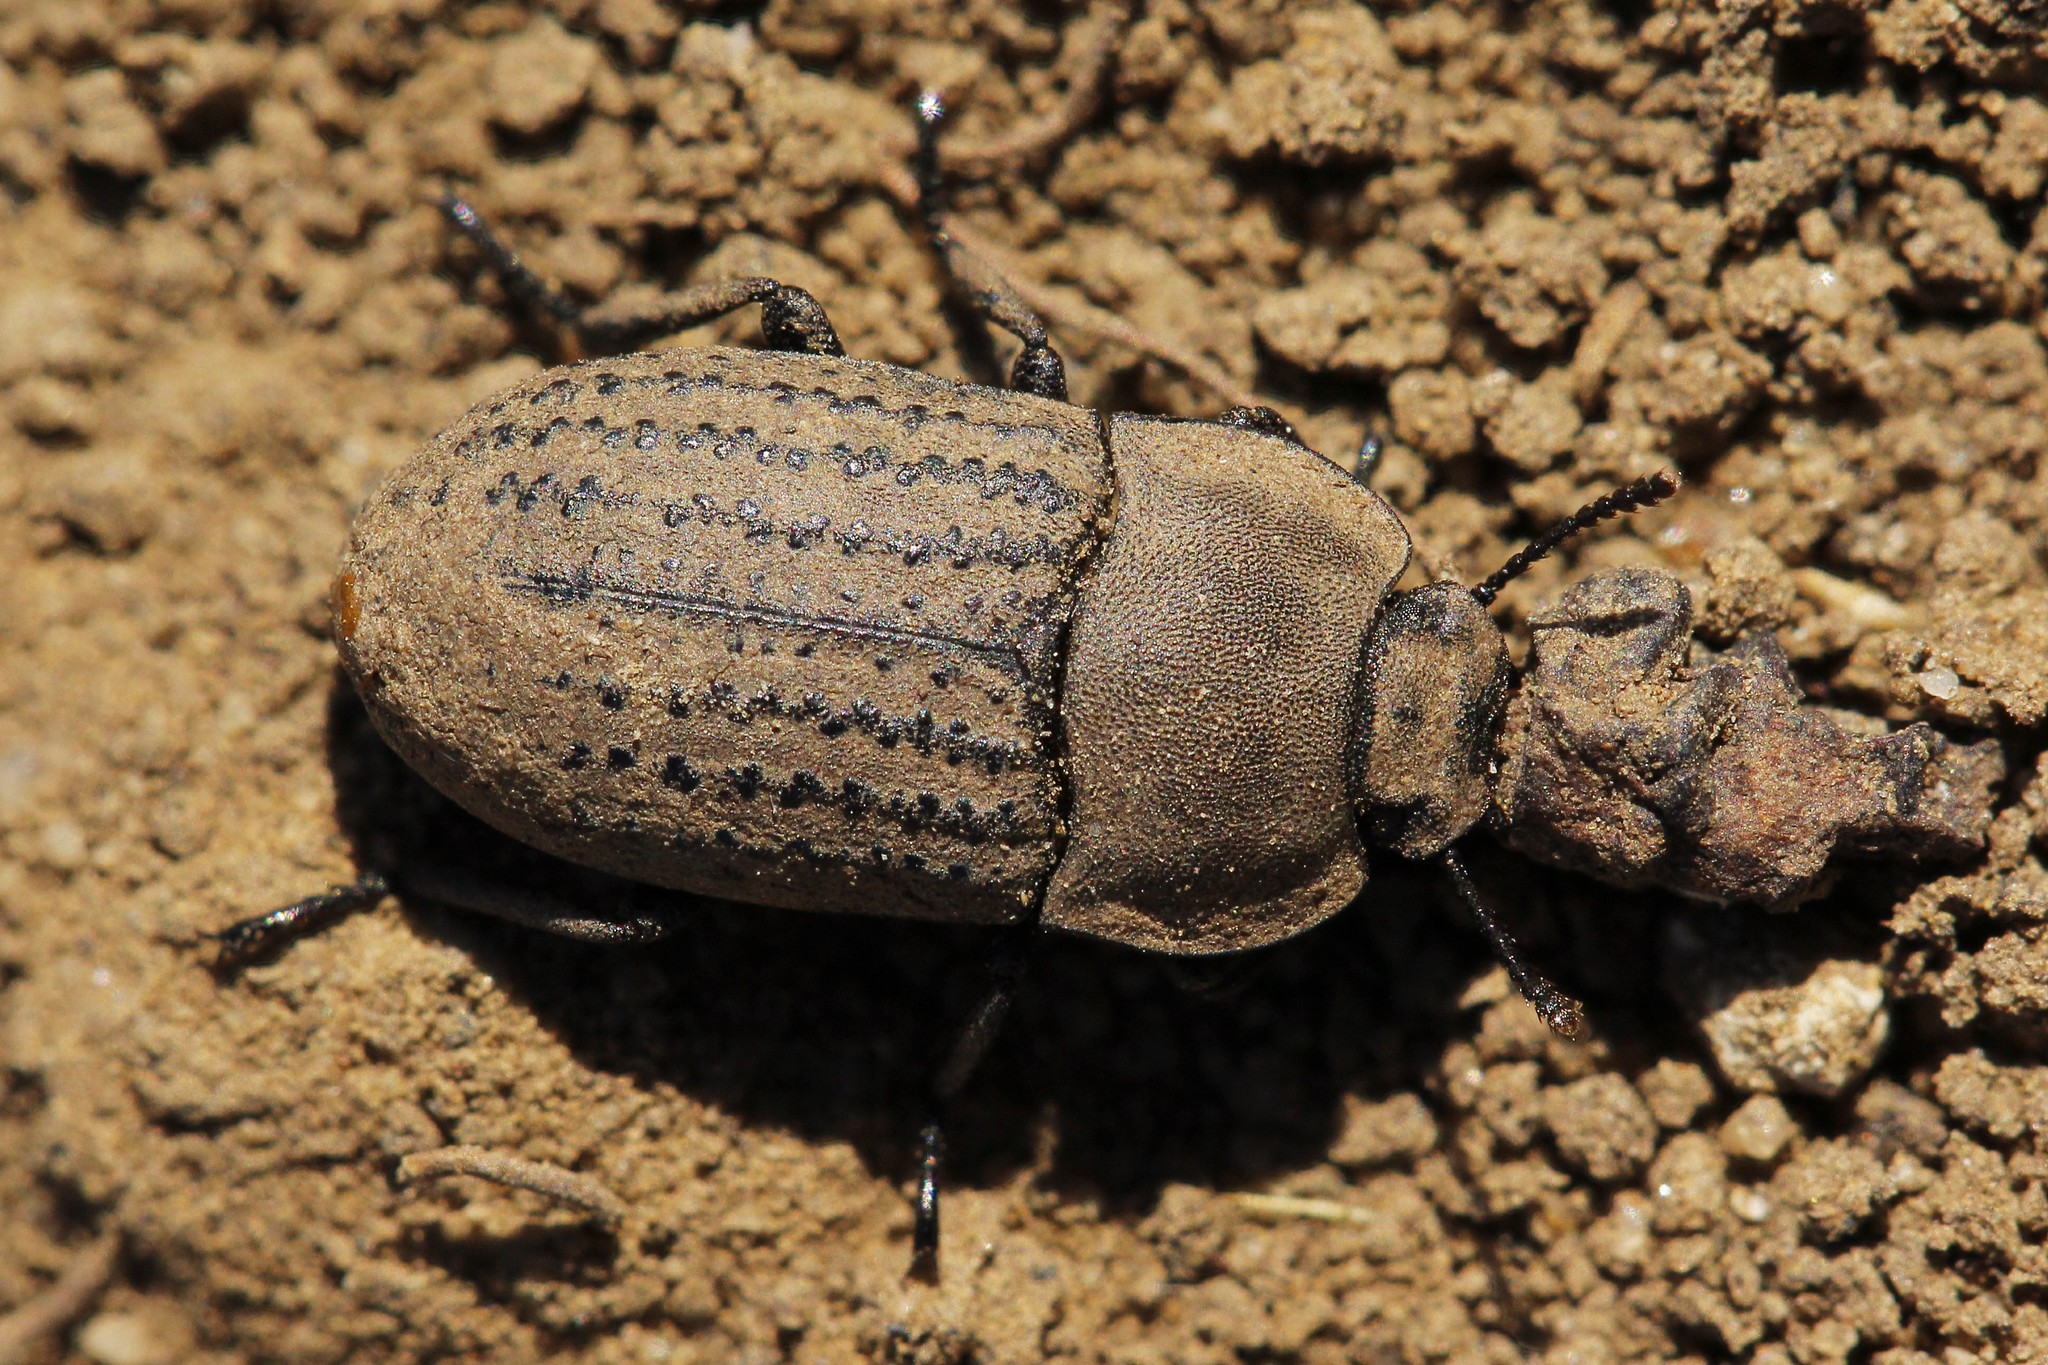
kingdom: Animalia
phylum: Arthropoda
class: Insecta
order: Coleoptera
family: Tenebrionidae
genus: Opatrum
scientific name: Opatrum sabulosum
